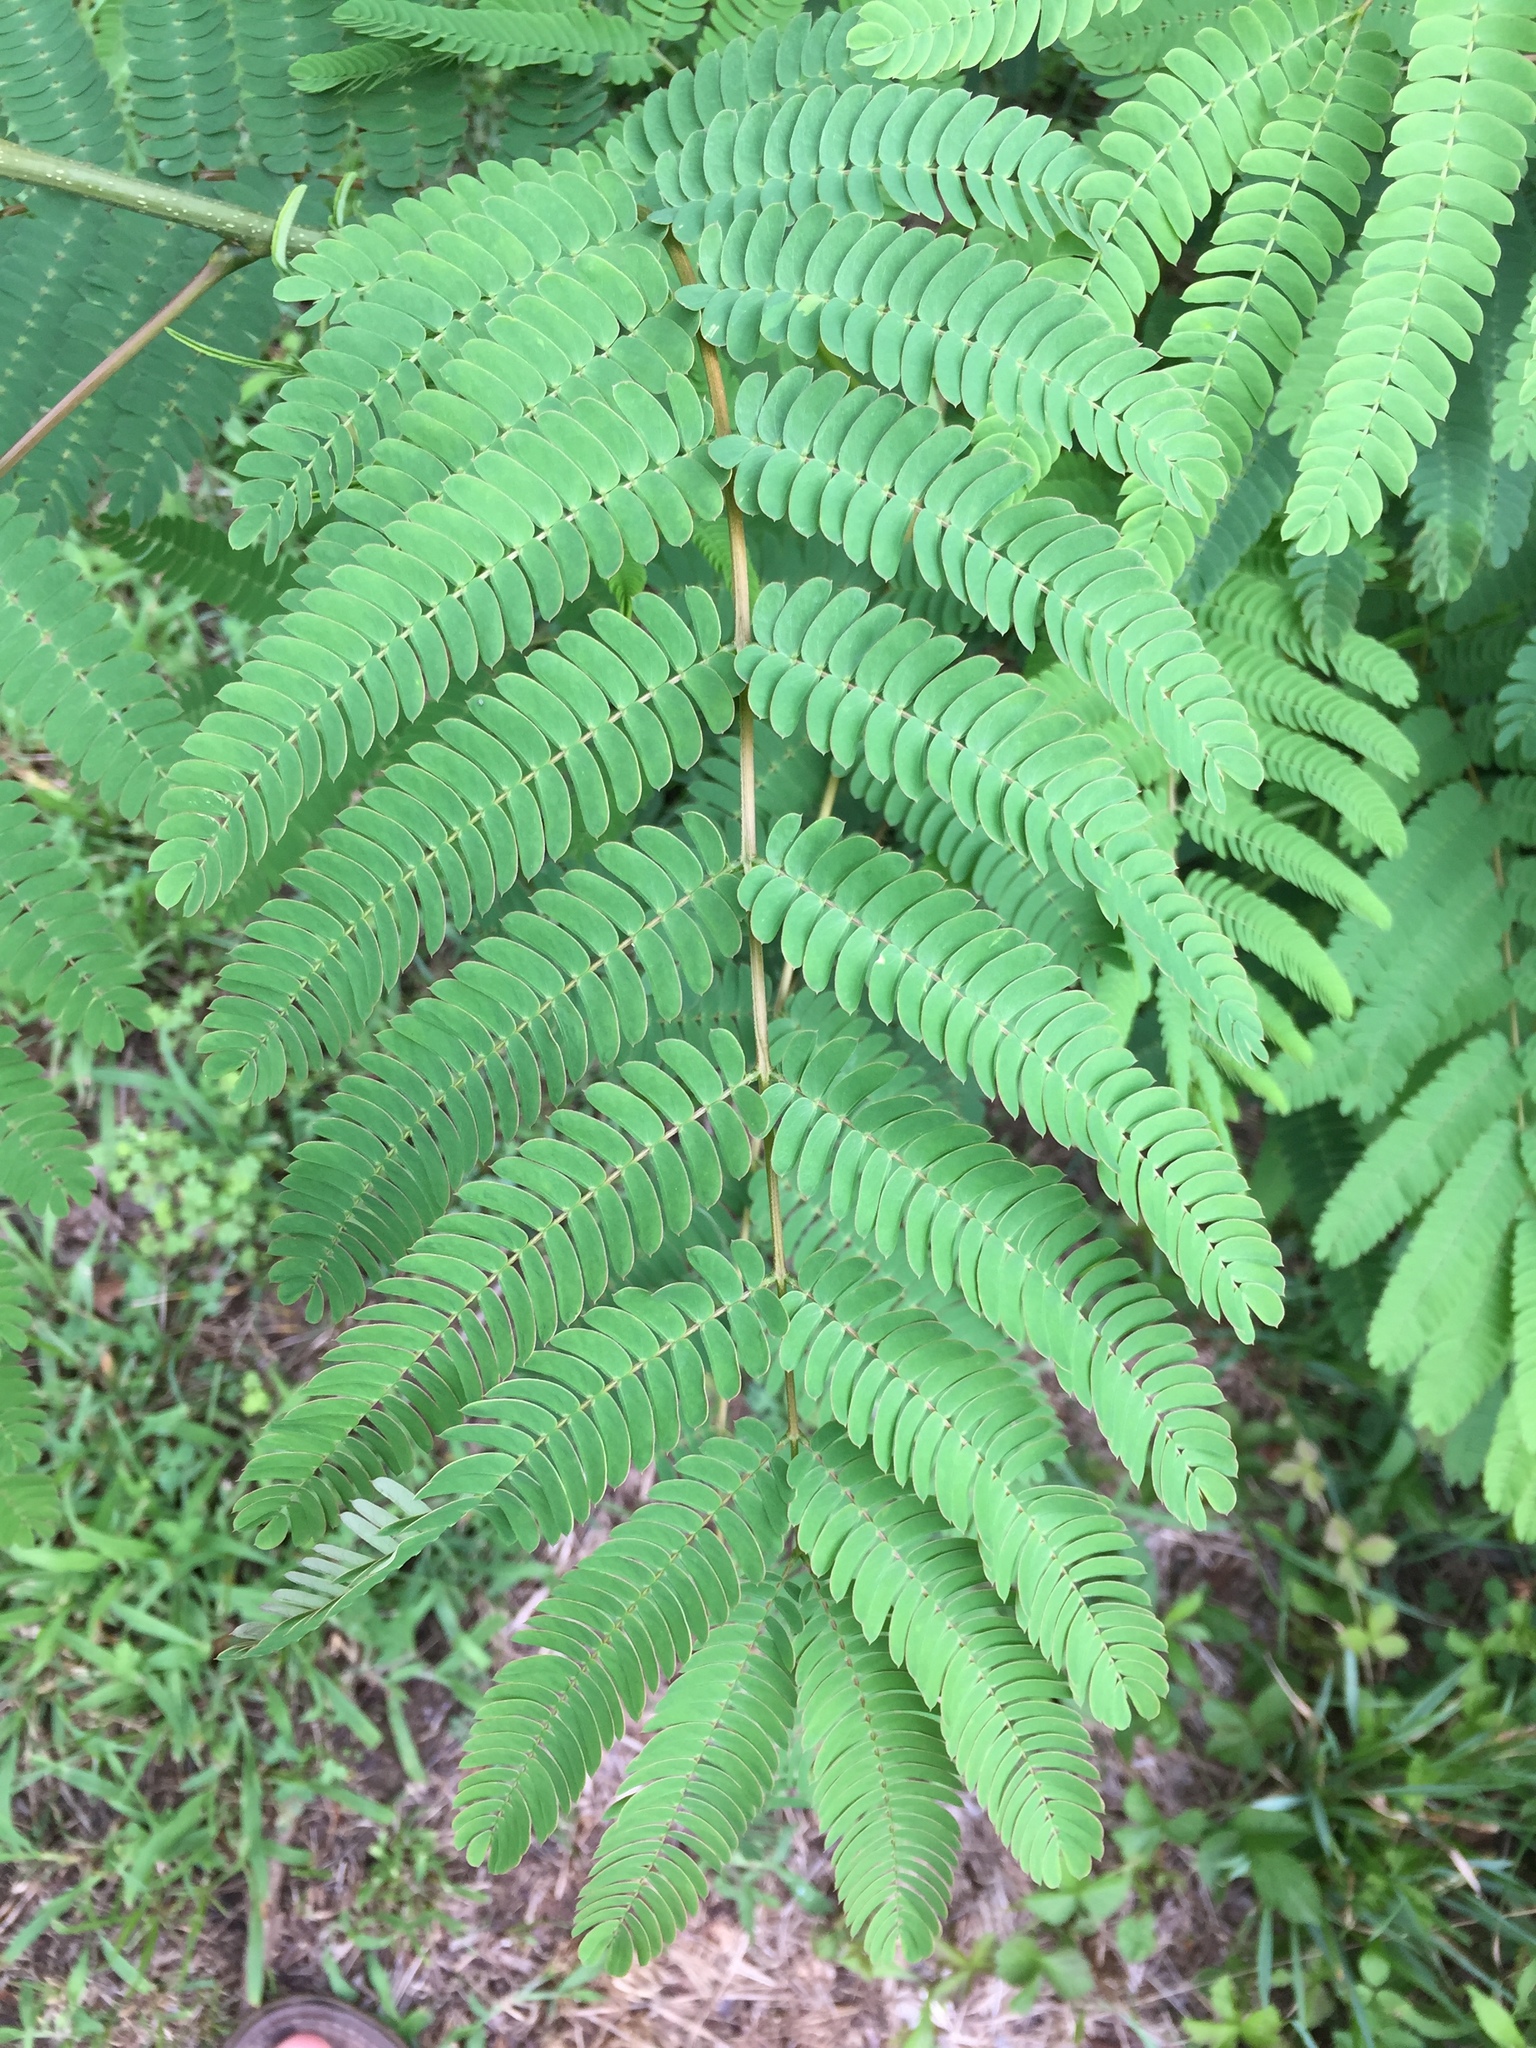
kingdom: Plantae
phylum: Tracheophyta
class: Magnoliopsida
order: Fabales
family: Fabaceae
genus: Albizia
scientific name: Albizia julibrissin
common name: Silktree
